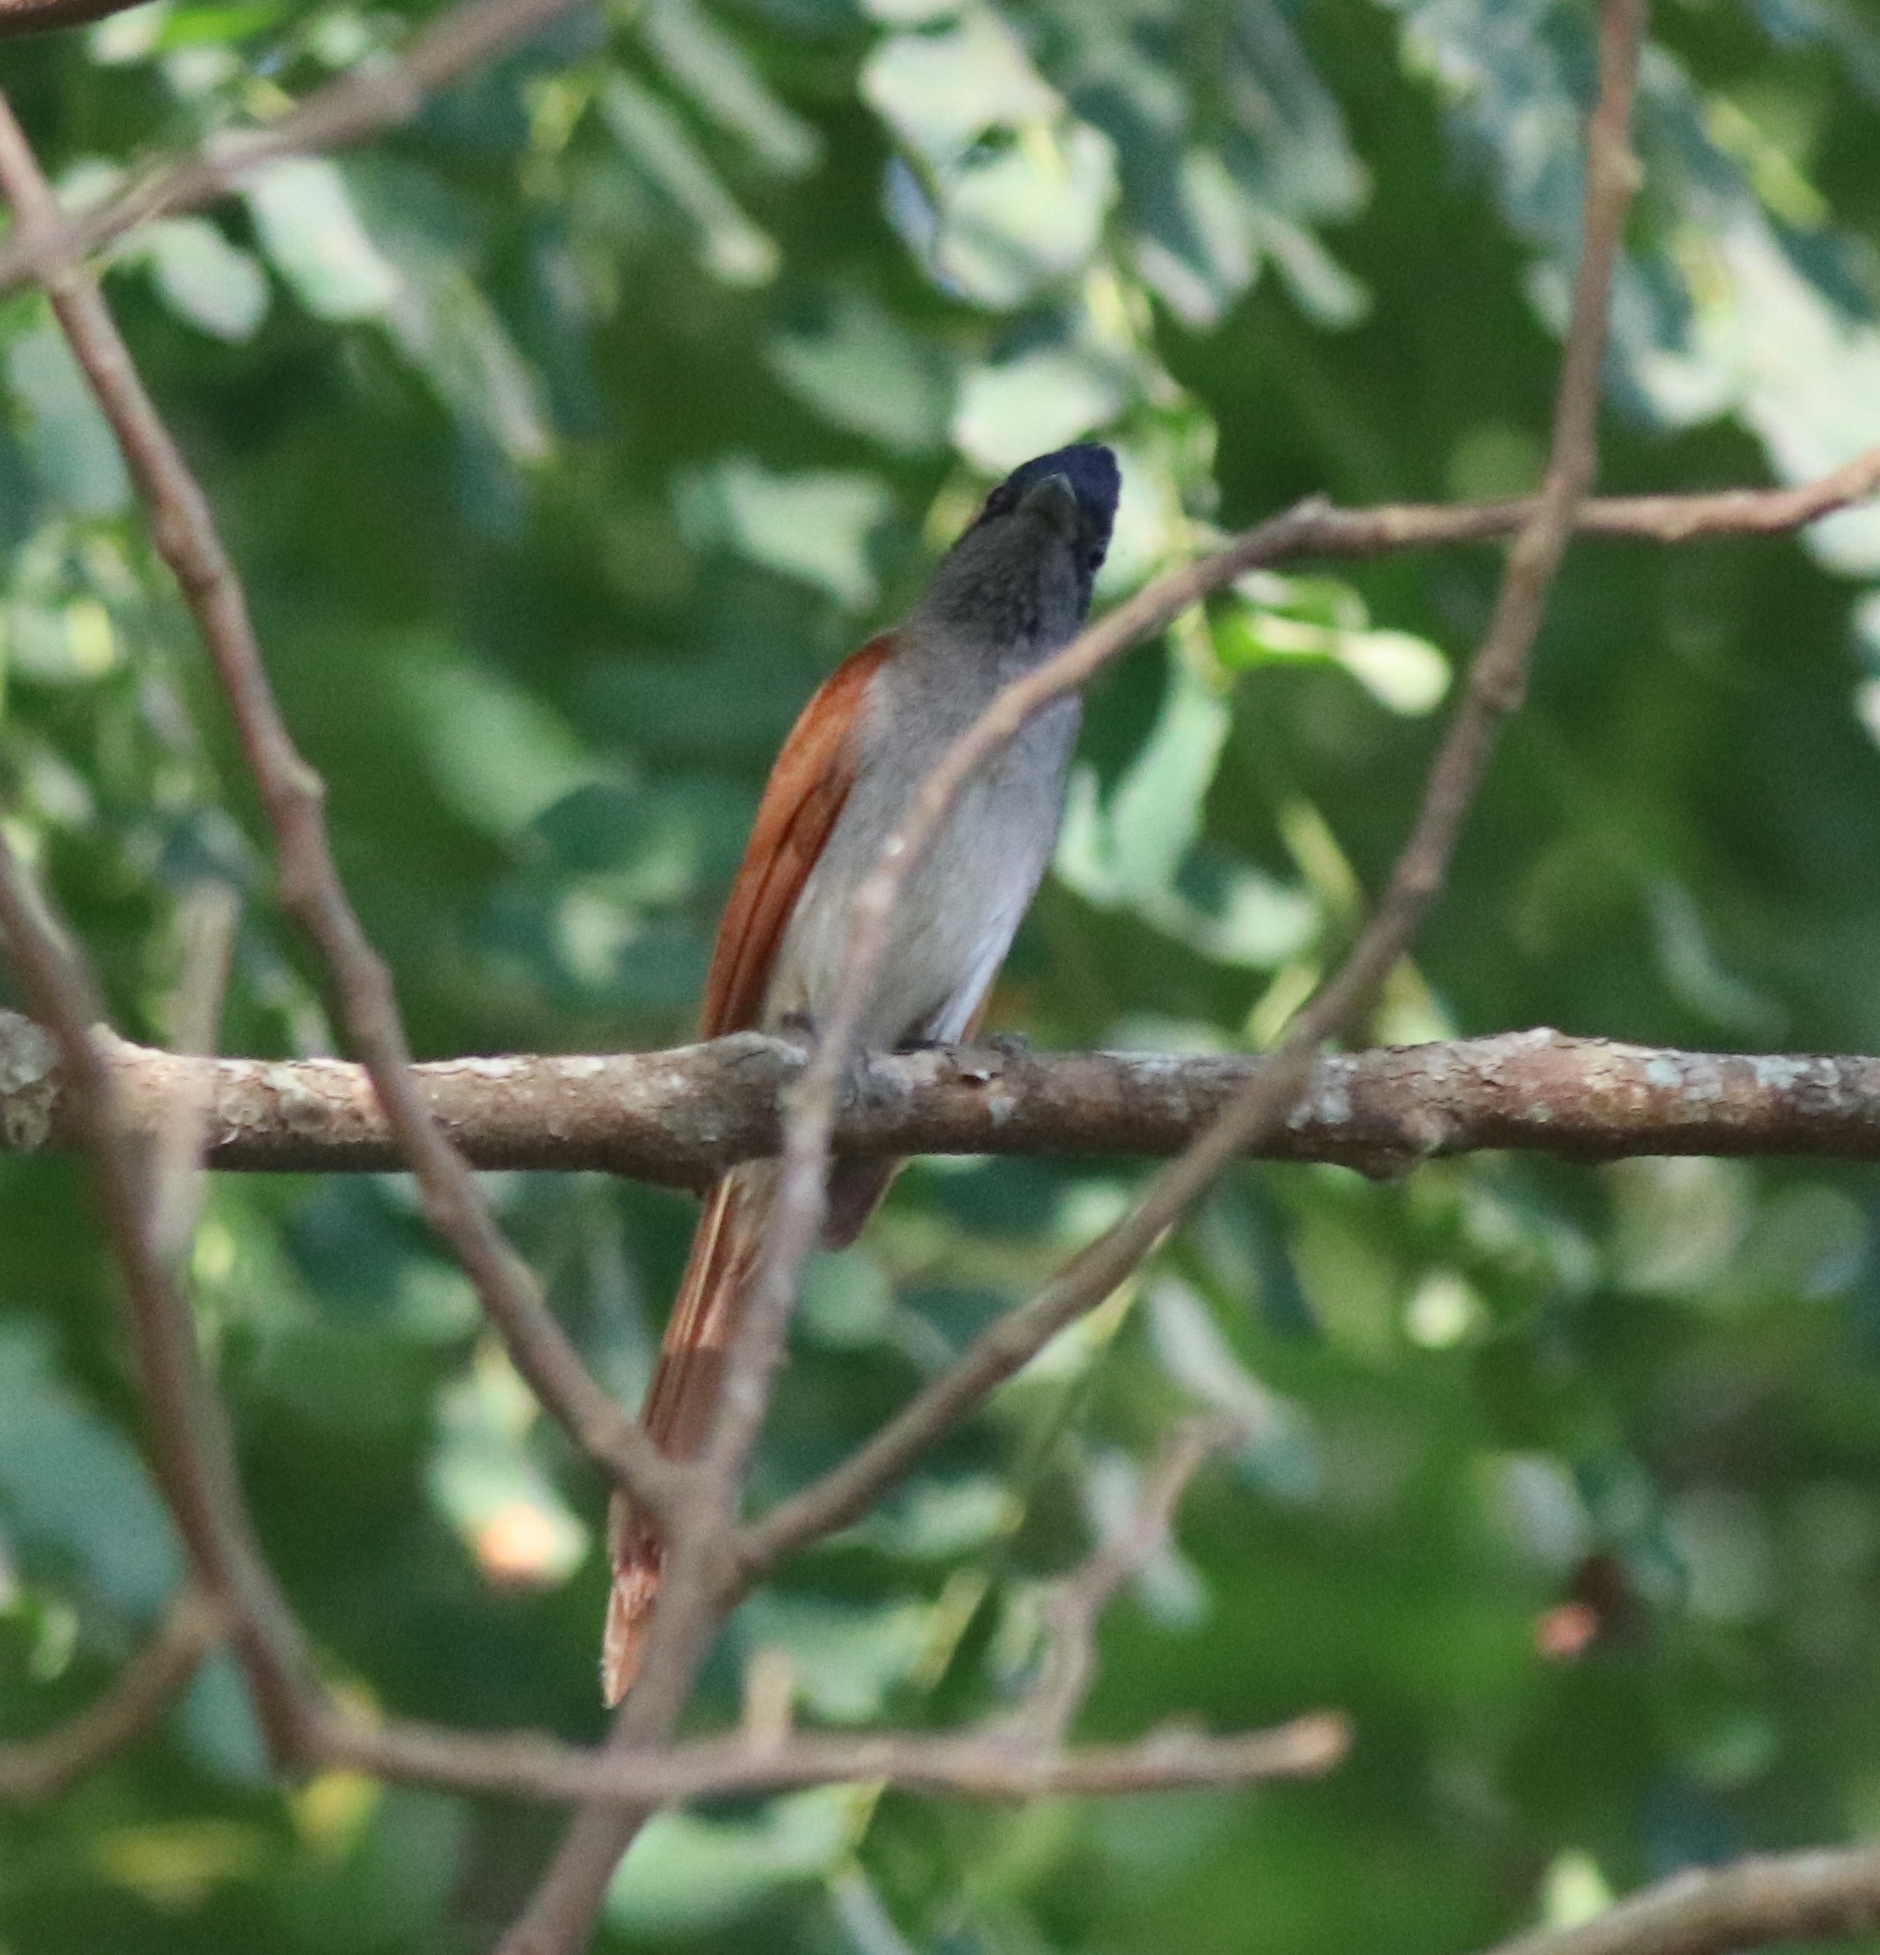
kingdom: Animalia
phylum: Chordata
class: Aves
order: Passeriformes
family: Monarchidae
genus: Terpsiphone
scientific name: Terpsiphone paradisi
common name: Indian paradise flycatcher
